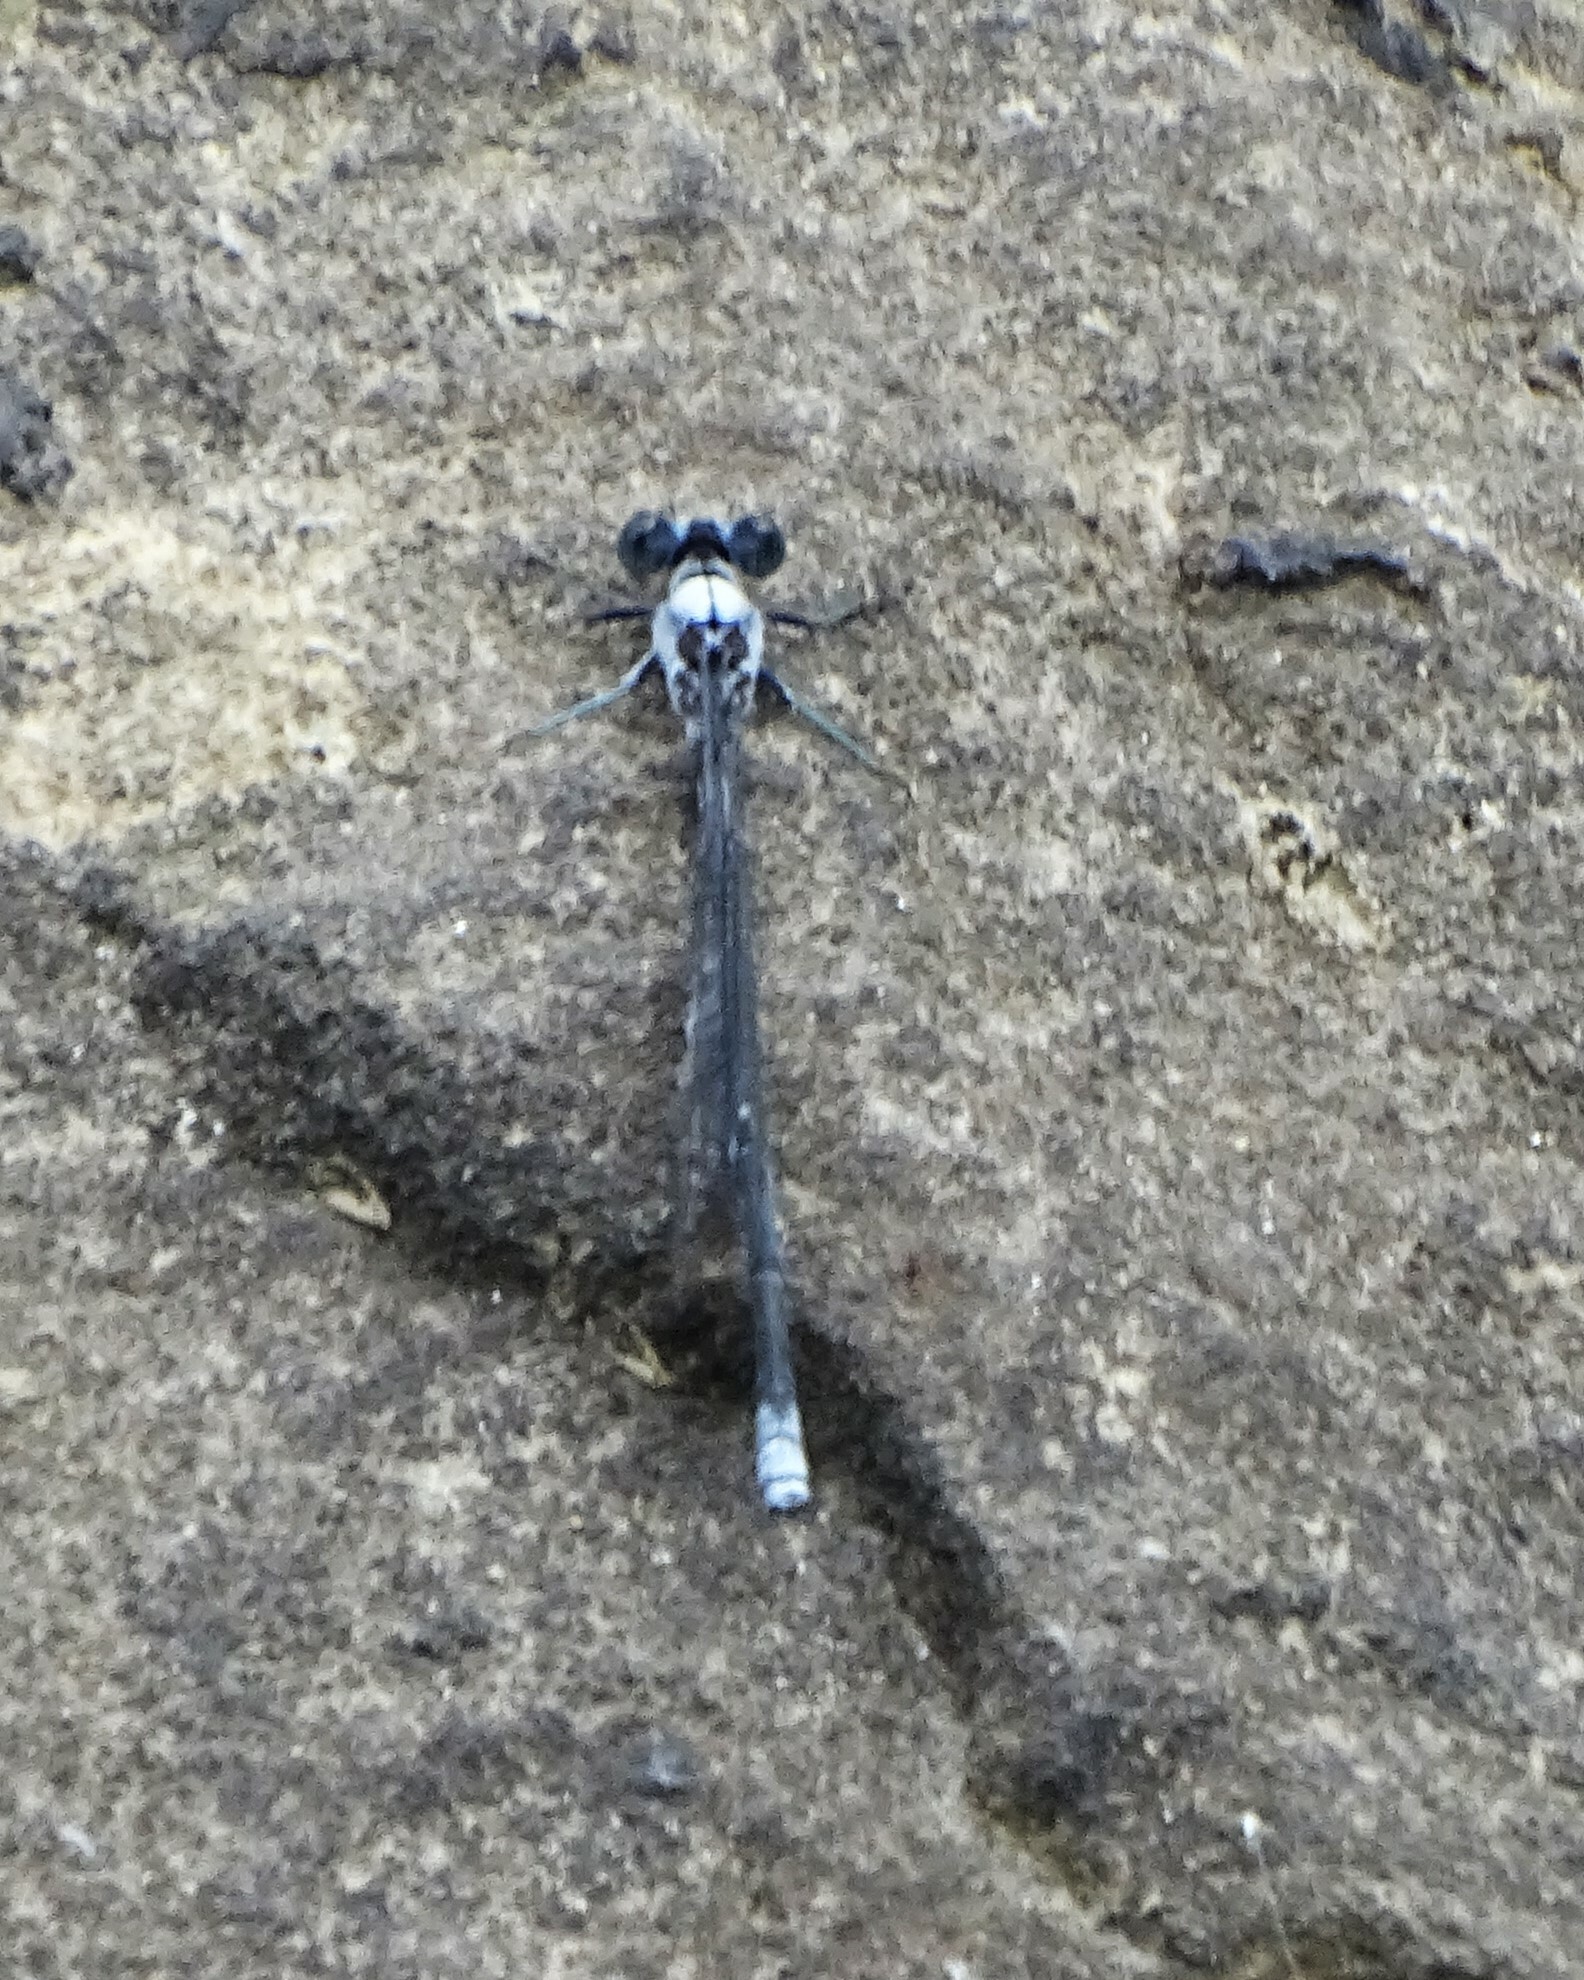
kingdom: Animalia
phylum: Arthropoda
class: Insecta
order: Odonata
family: Coenagrionidae
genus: Argia
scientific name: Argia moesta
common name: Powdered dancer
